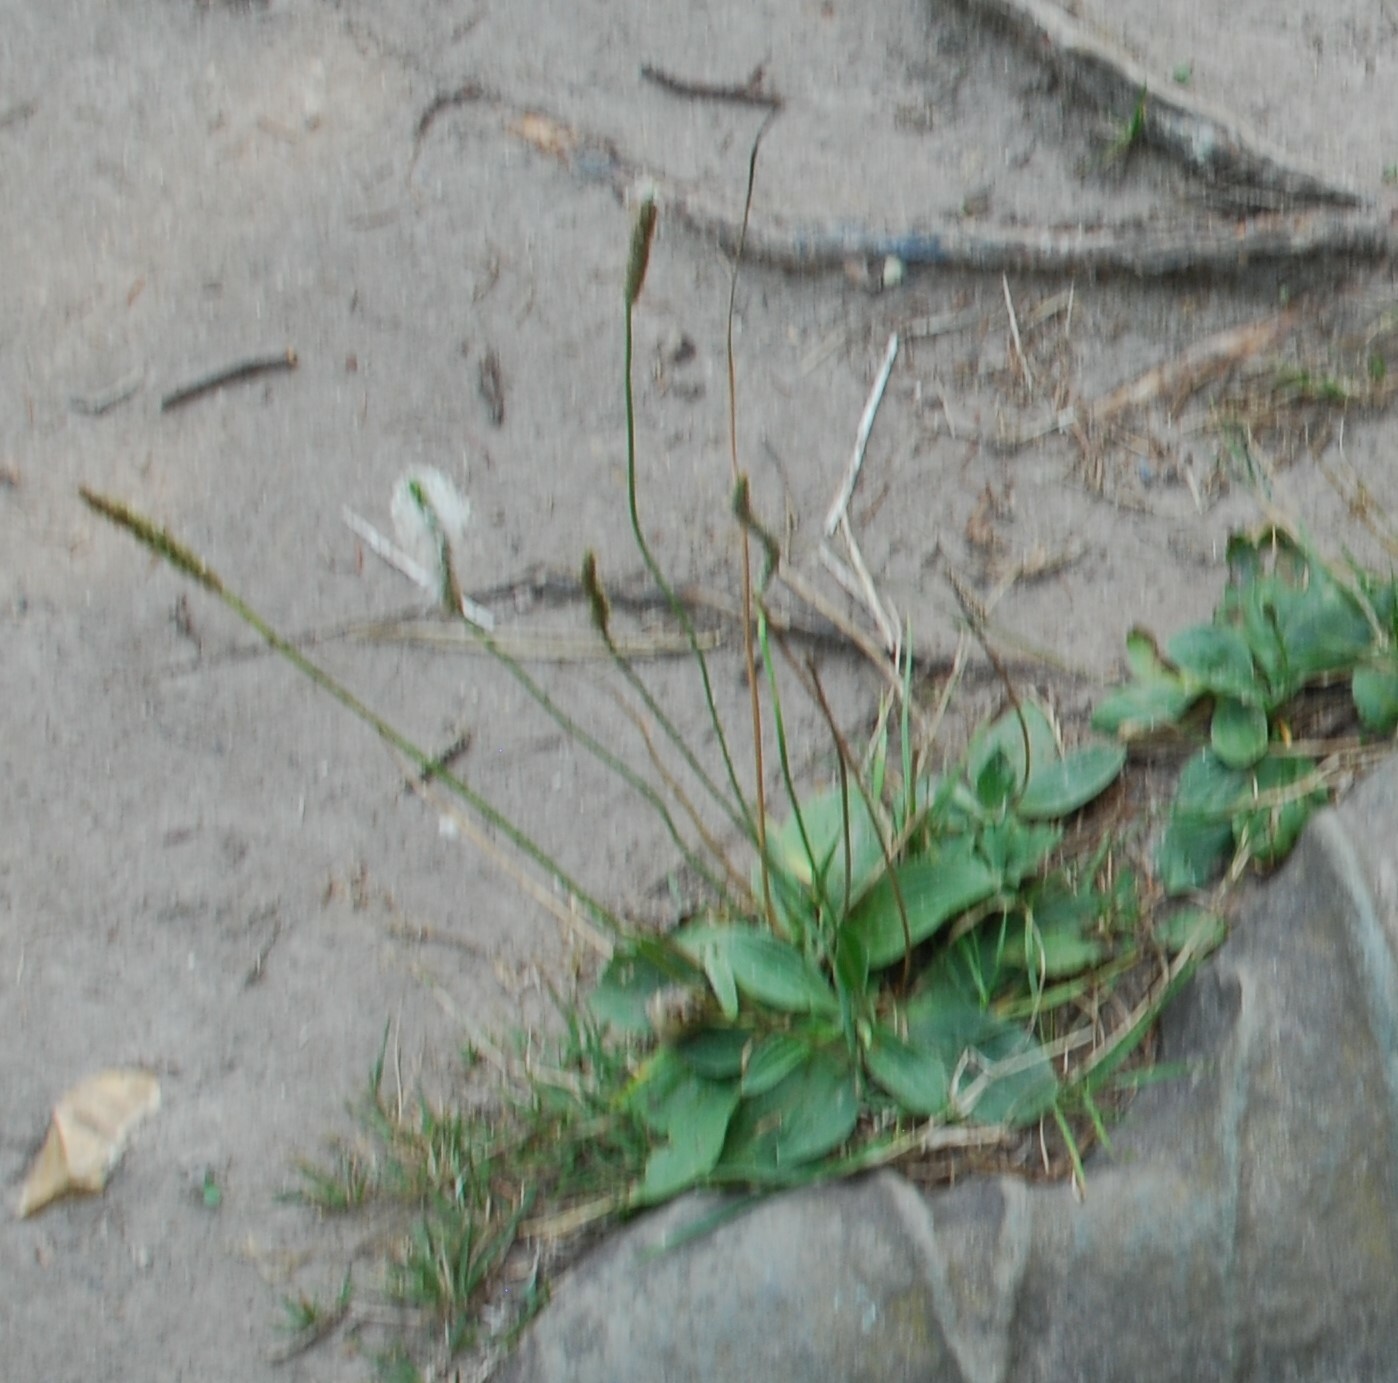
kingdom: Plantae
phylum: Tracheophyta
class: Magnoliopsida
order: Lamiales
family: Plantaginaceae
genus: Plantago
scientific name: Plantago media
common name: Hoary plantain
